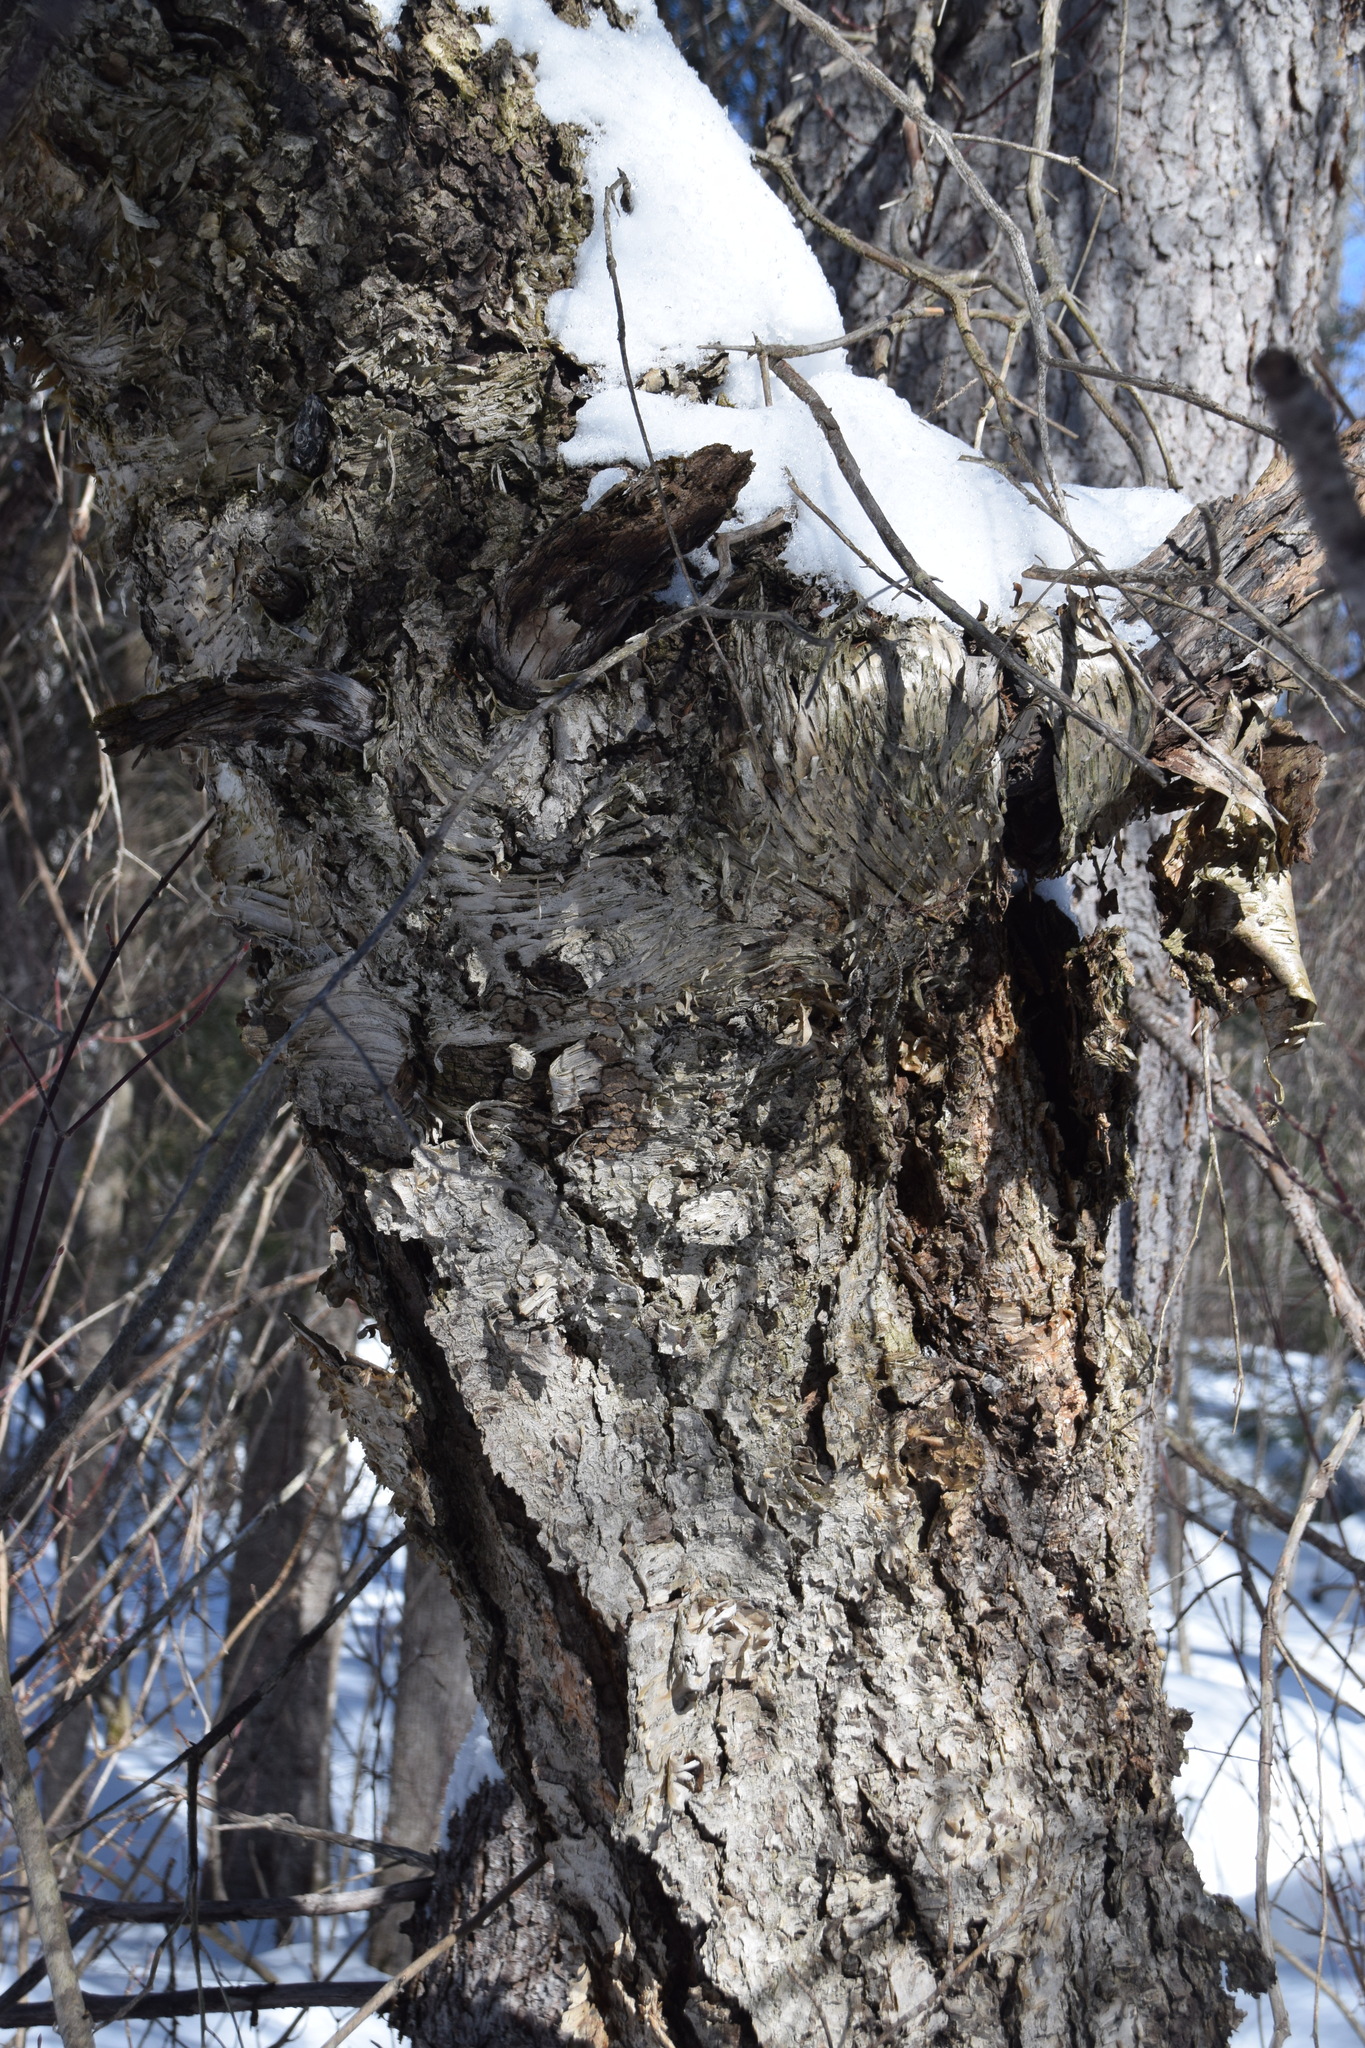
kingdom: Plantae
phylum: Tracheophyta
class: Magnoliopsida
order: Fagales
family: Betulaceae
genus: Betula
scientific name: Betula alleghaniensis
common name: Yellow birch
